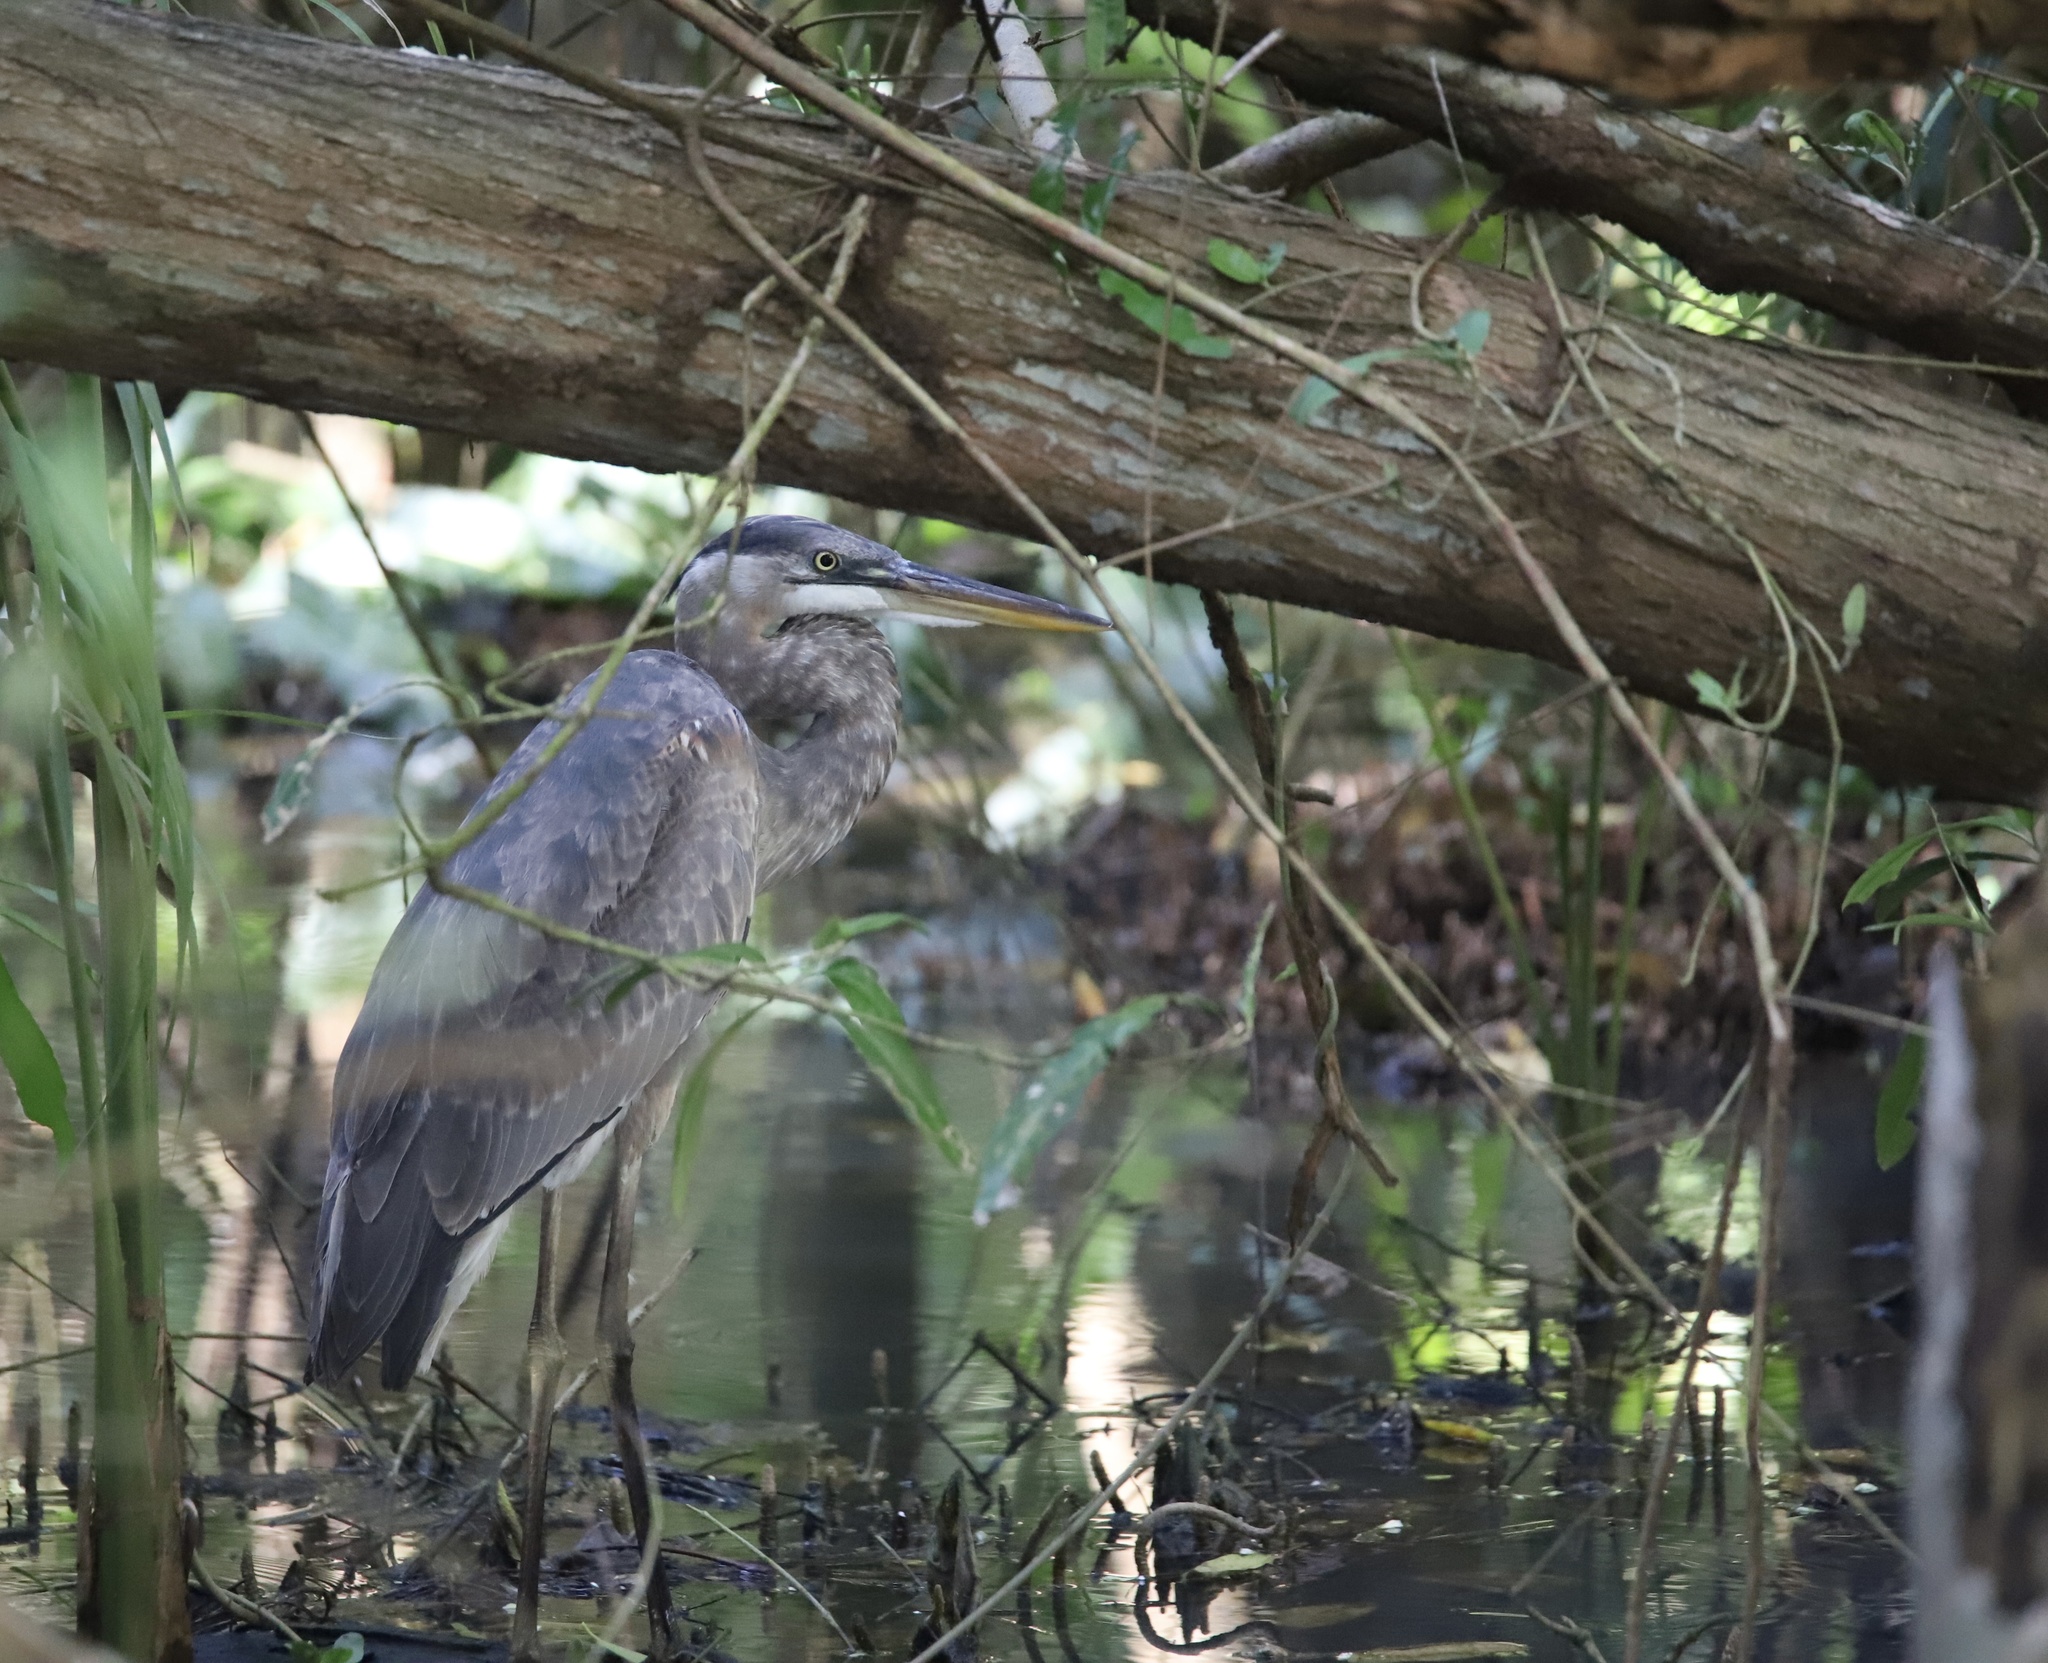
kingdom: Animalia
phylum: Chordata
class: Aves
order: Pelecaniformes
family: Ardeidae
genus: Ardea
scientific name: Ardea herodias
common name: Great blue heron
